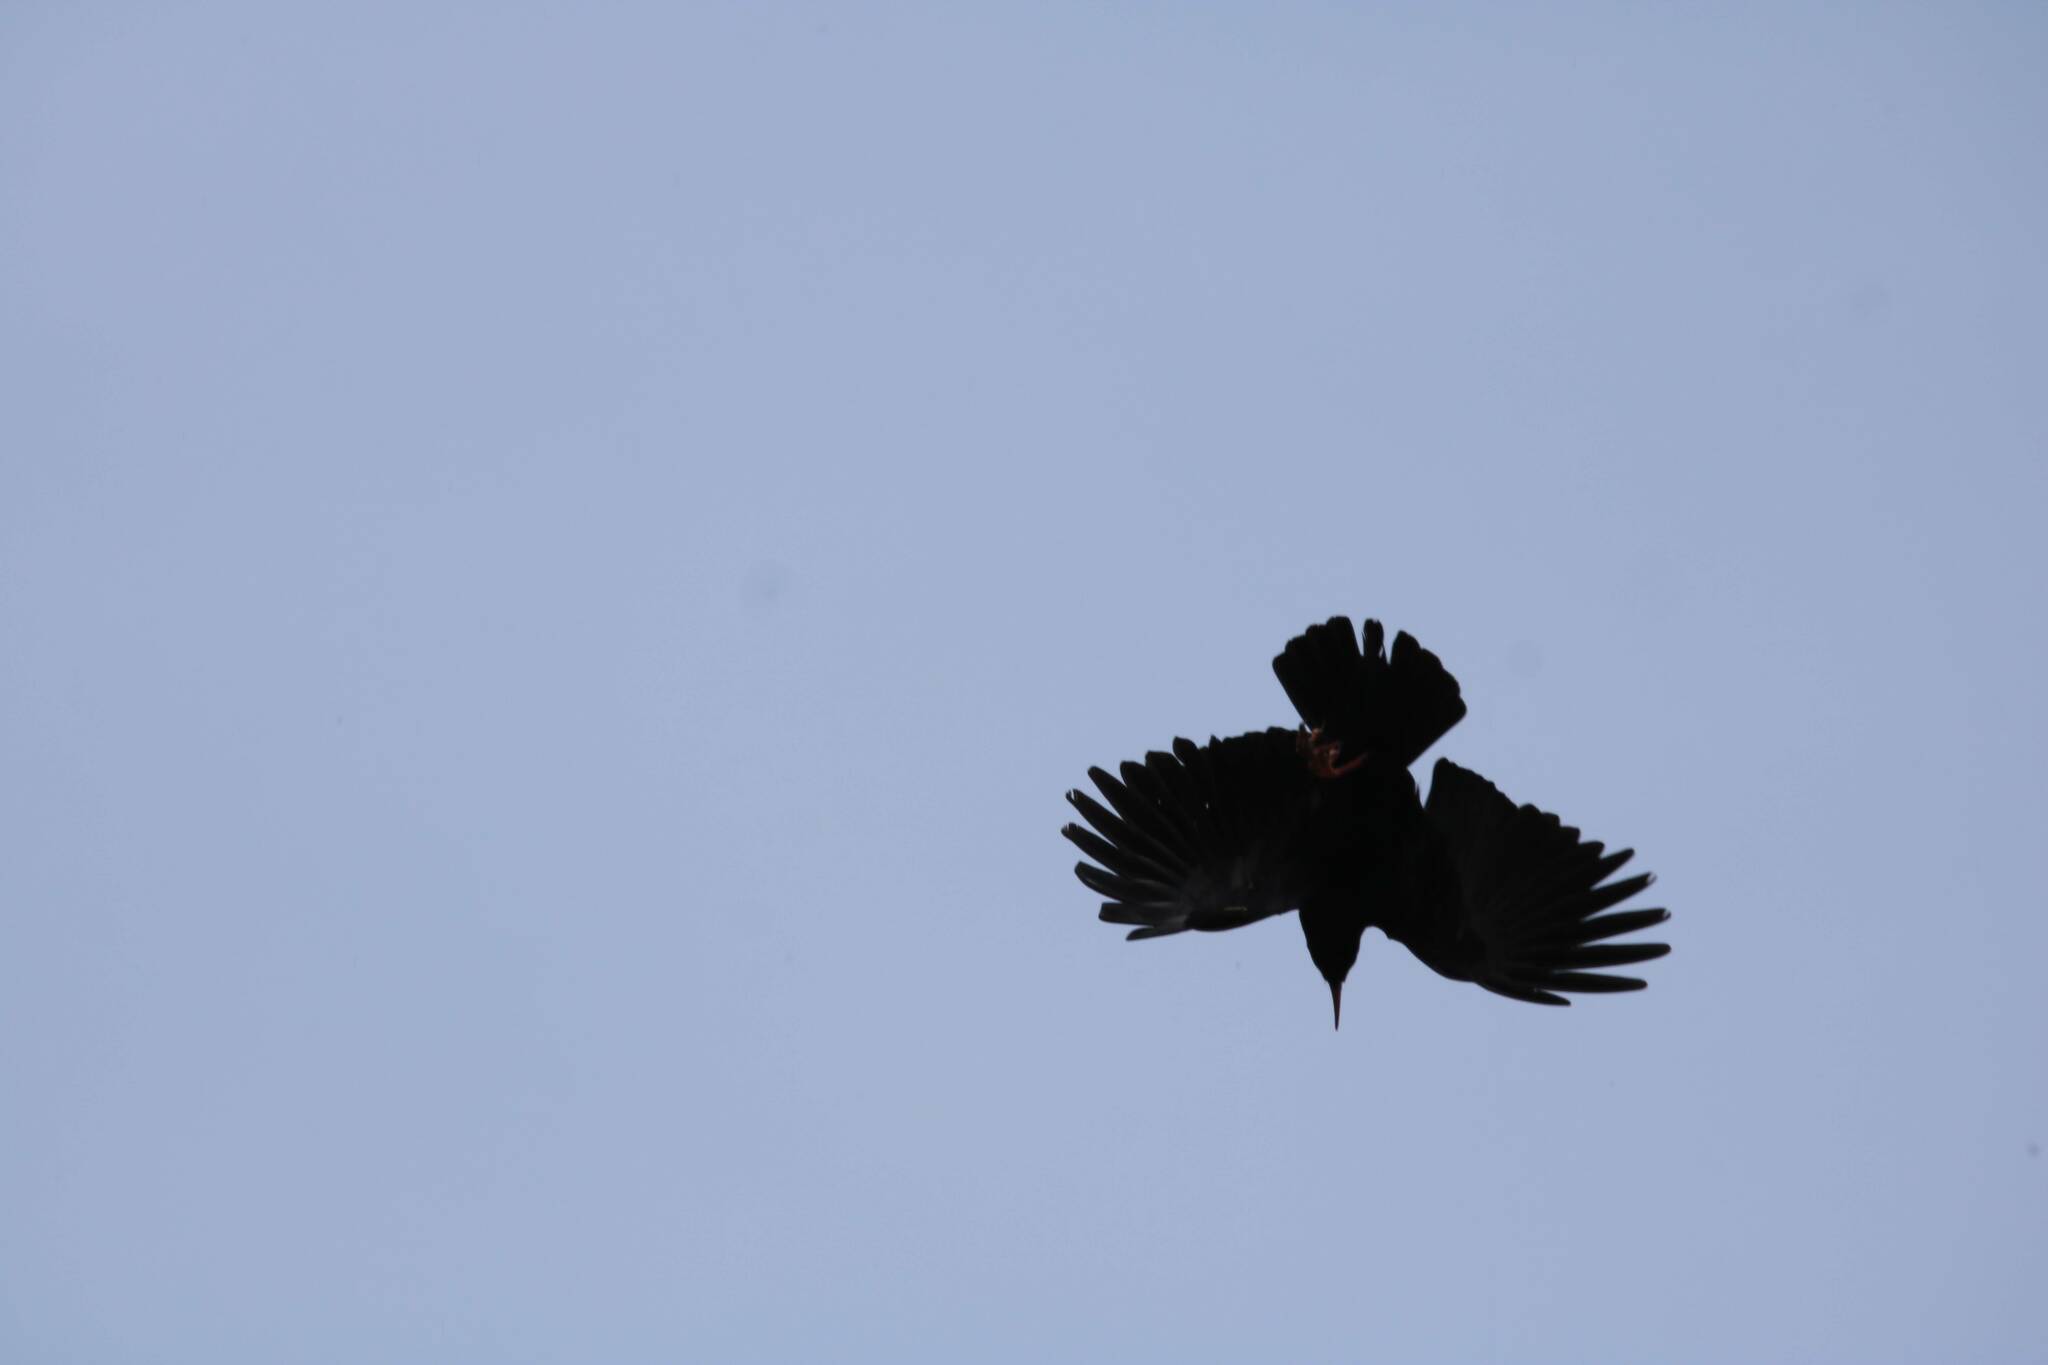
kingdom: Animalia
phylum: Chordata
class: Aves
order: Passeriformes
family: Corvidae
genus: Pyrrhocorax
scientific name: Pyrrhocorax pyrrhocorax
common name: Red-billed chough
